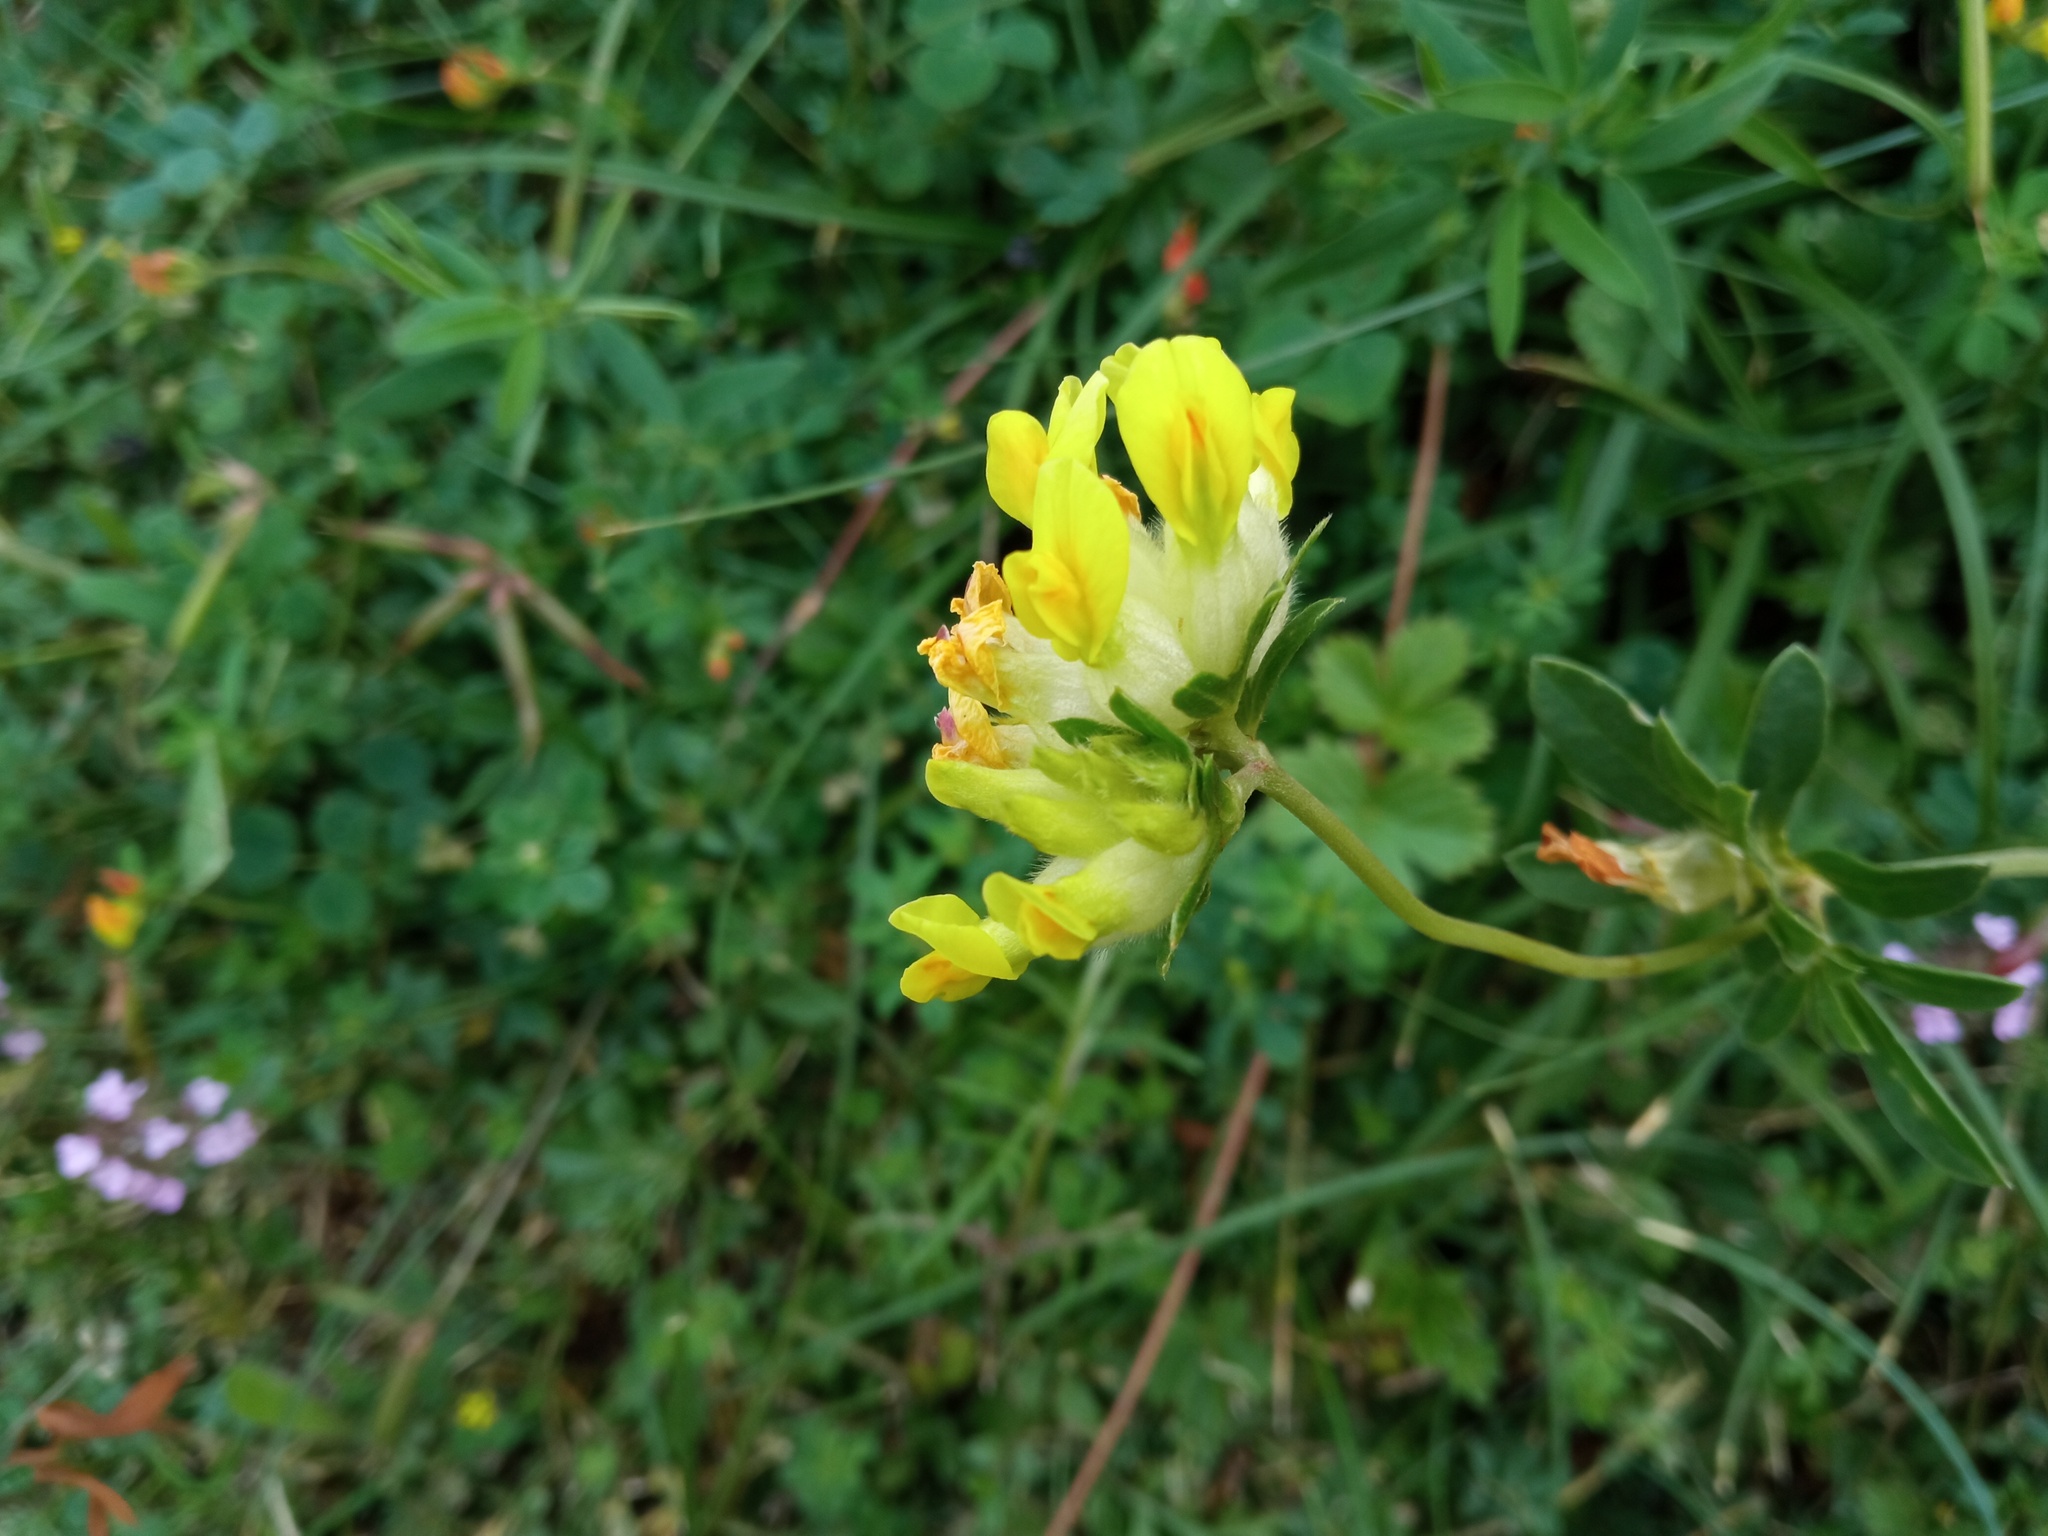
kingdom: Plantae
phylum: Tracheophyta
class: Magnoliopsida
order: Fabales
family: Fabaceae
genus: Anthyllis
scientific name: Anthyllis vulneraria
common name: Kidney vetch
